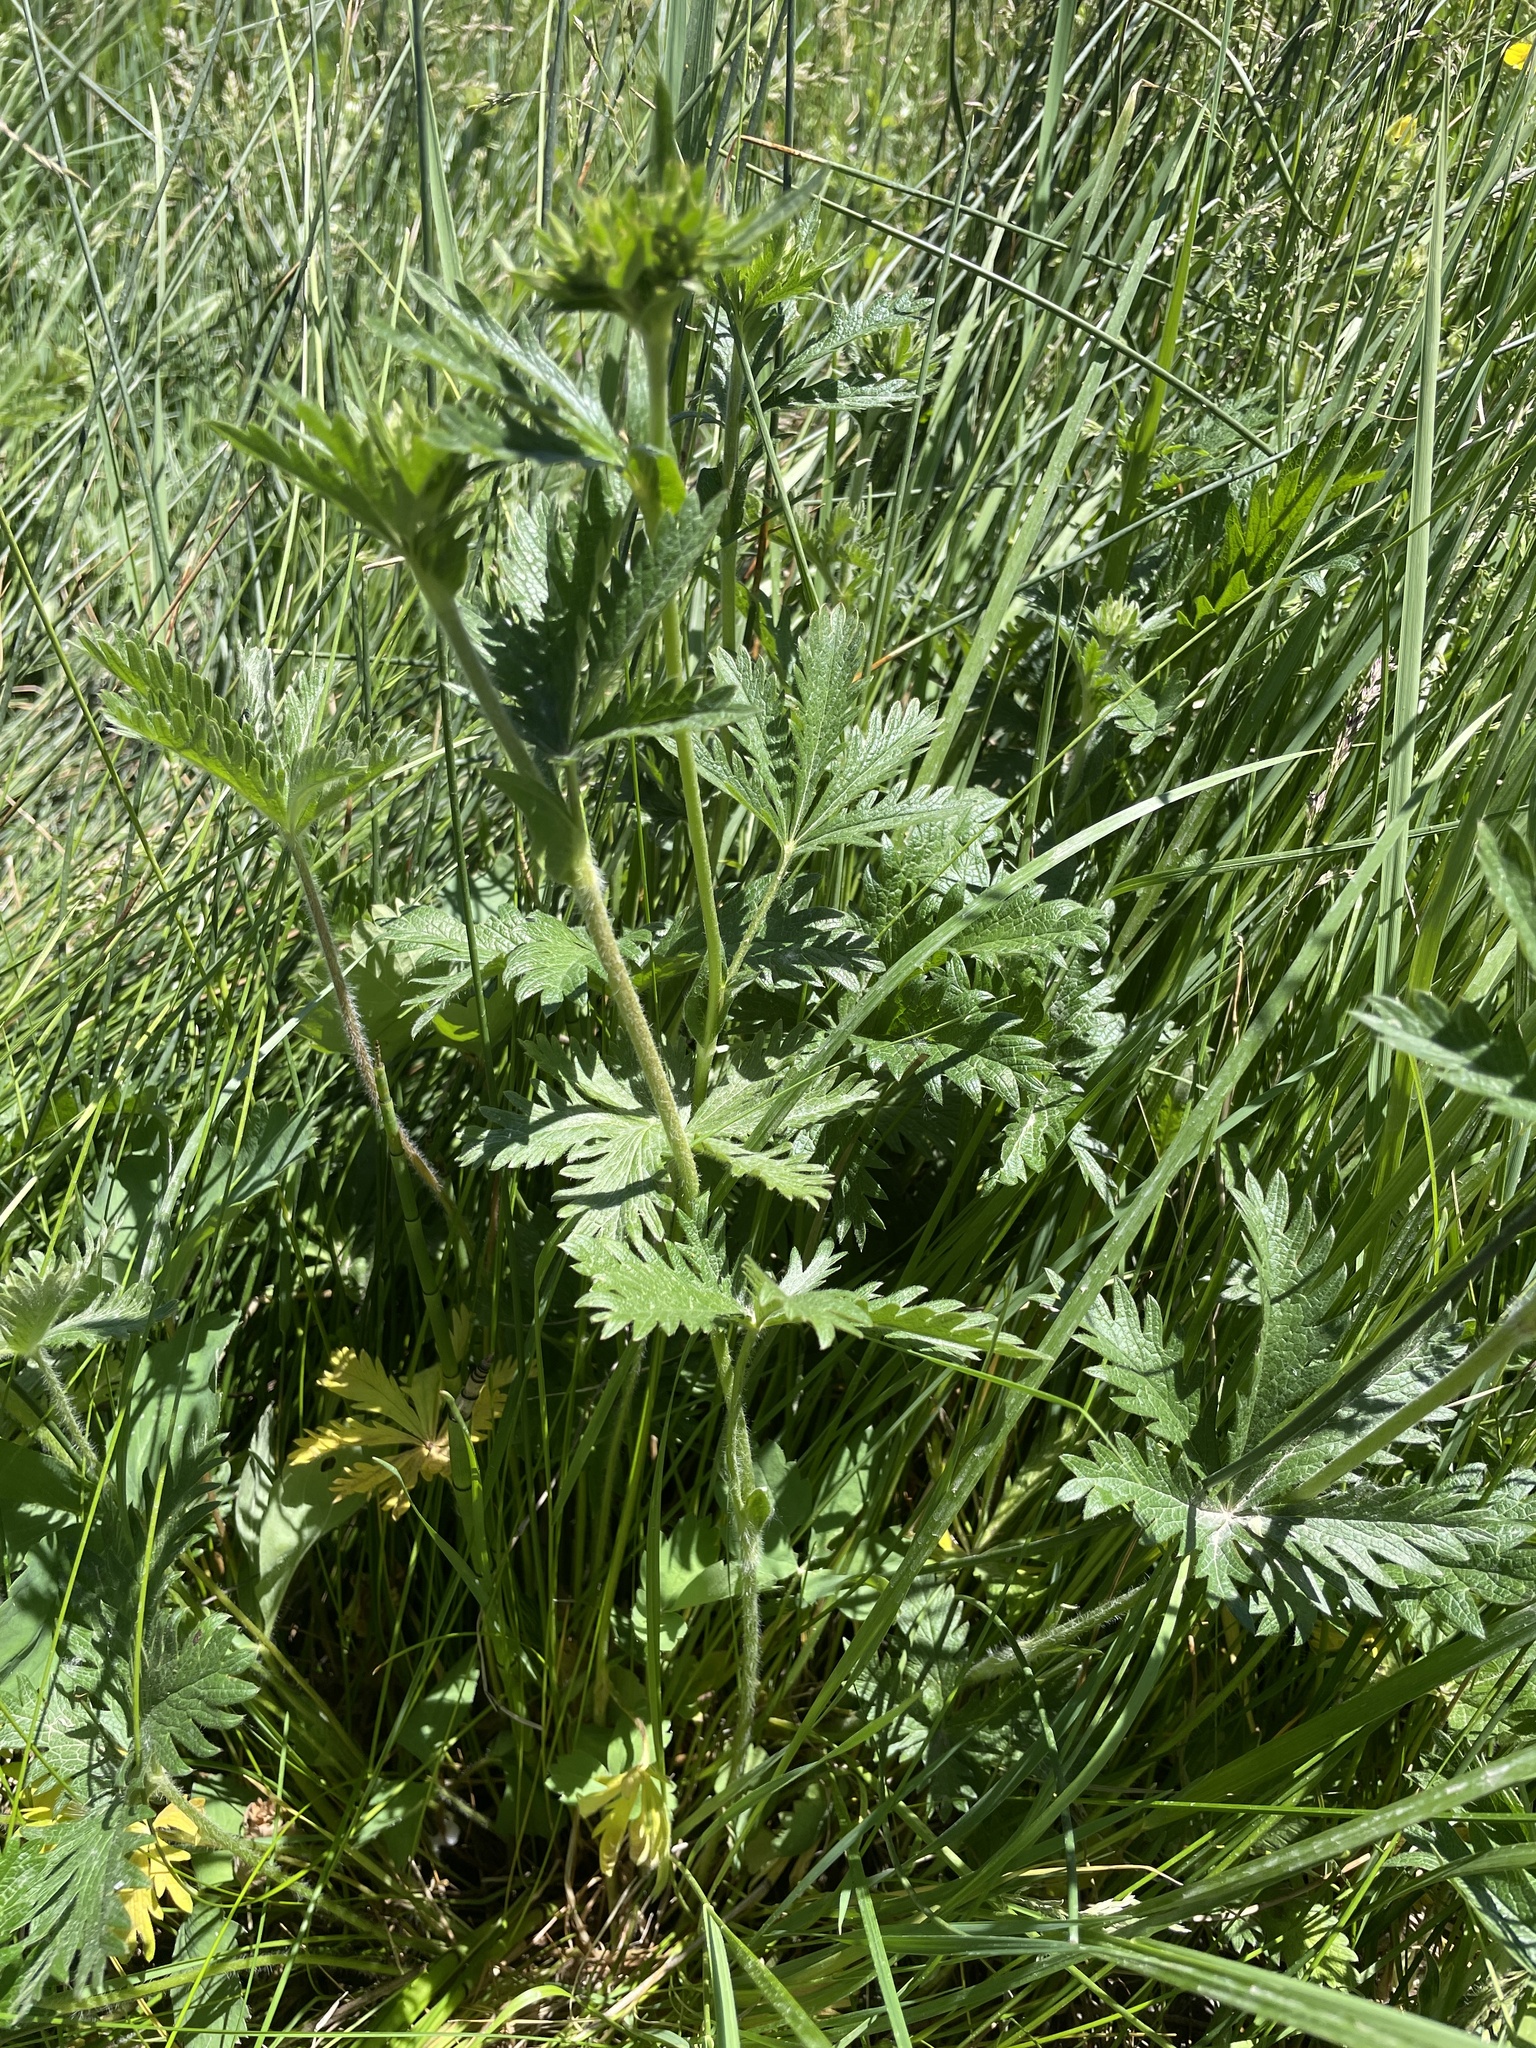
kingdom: Plantae
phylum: Tracheophyta
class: Magnoliopsida
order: Rosales
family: Rosaceae
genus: Potentilla
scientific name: Potentilla gracilis
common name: Graceful cinquefoil
